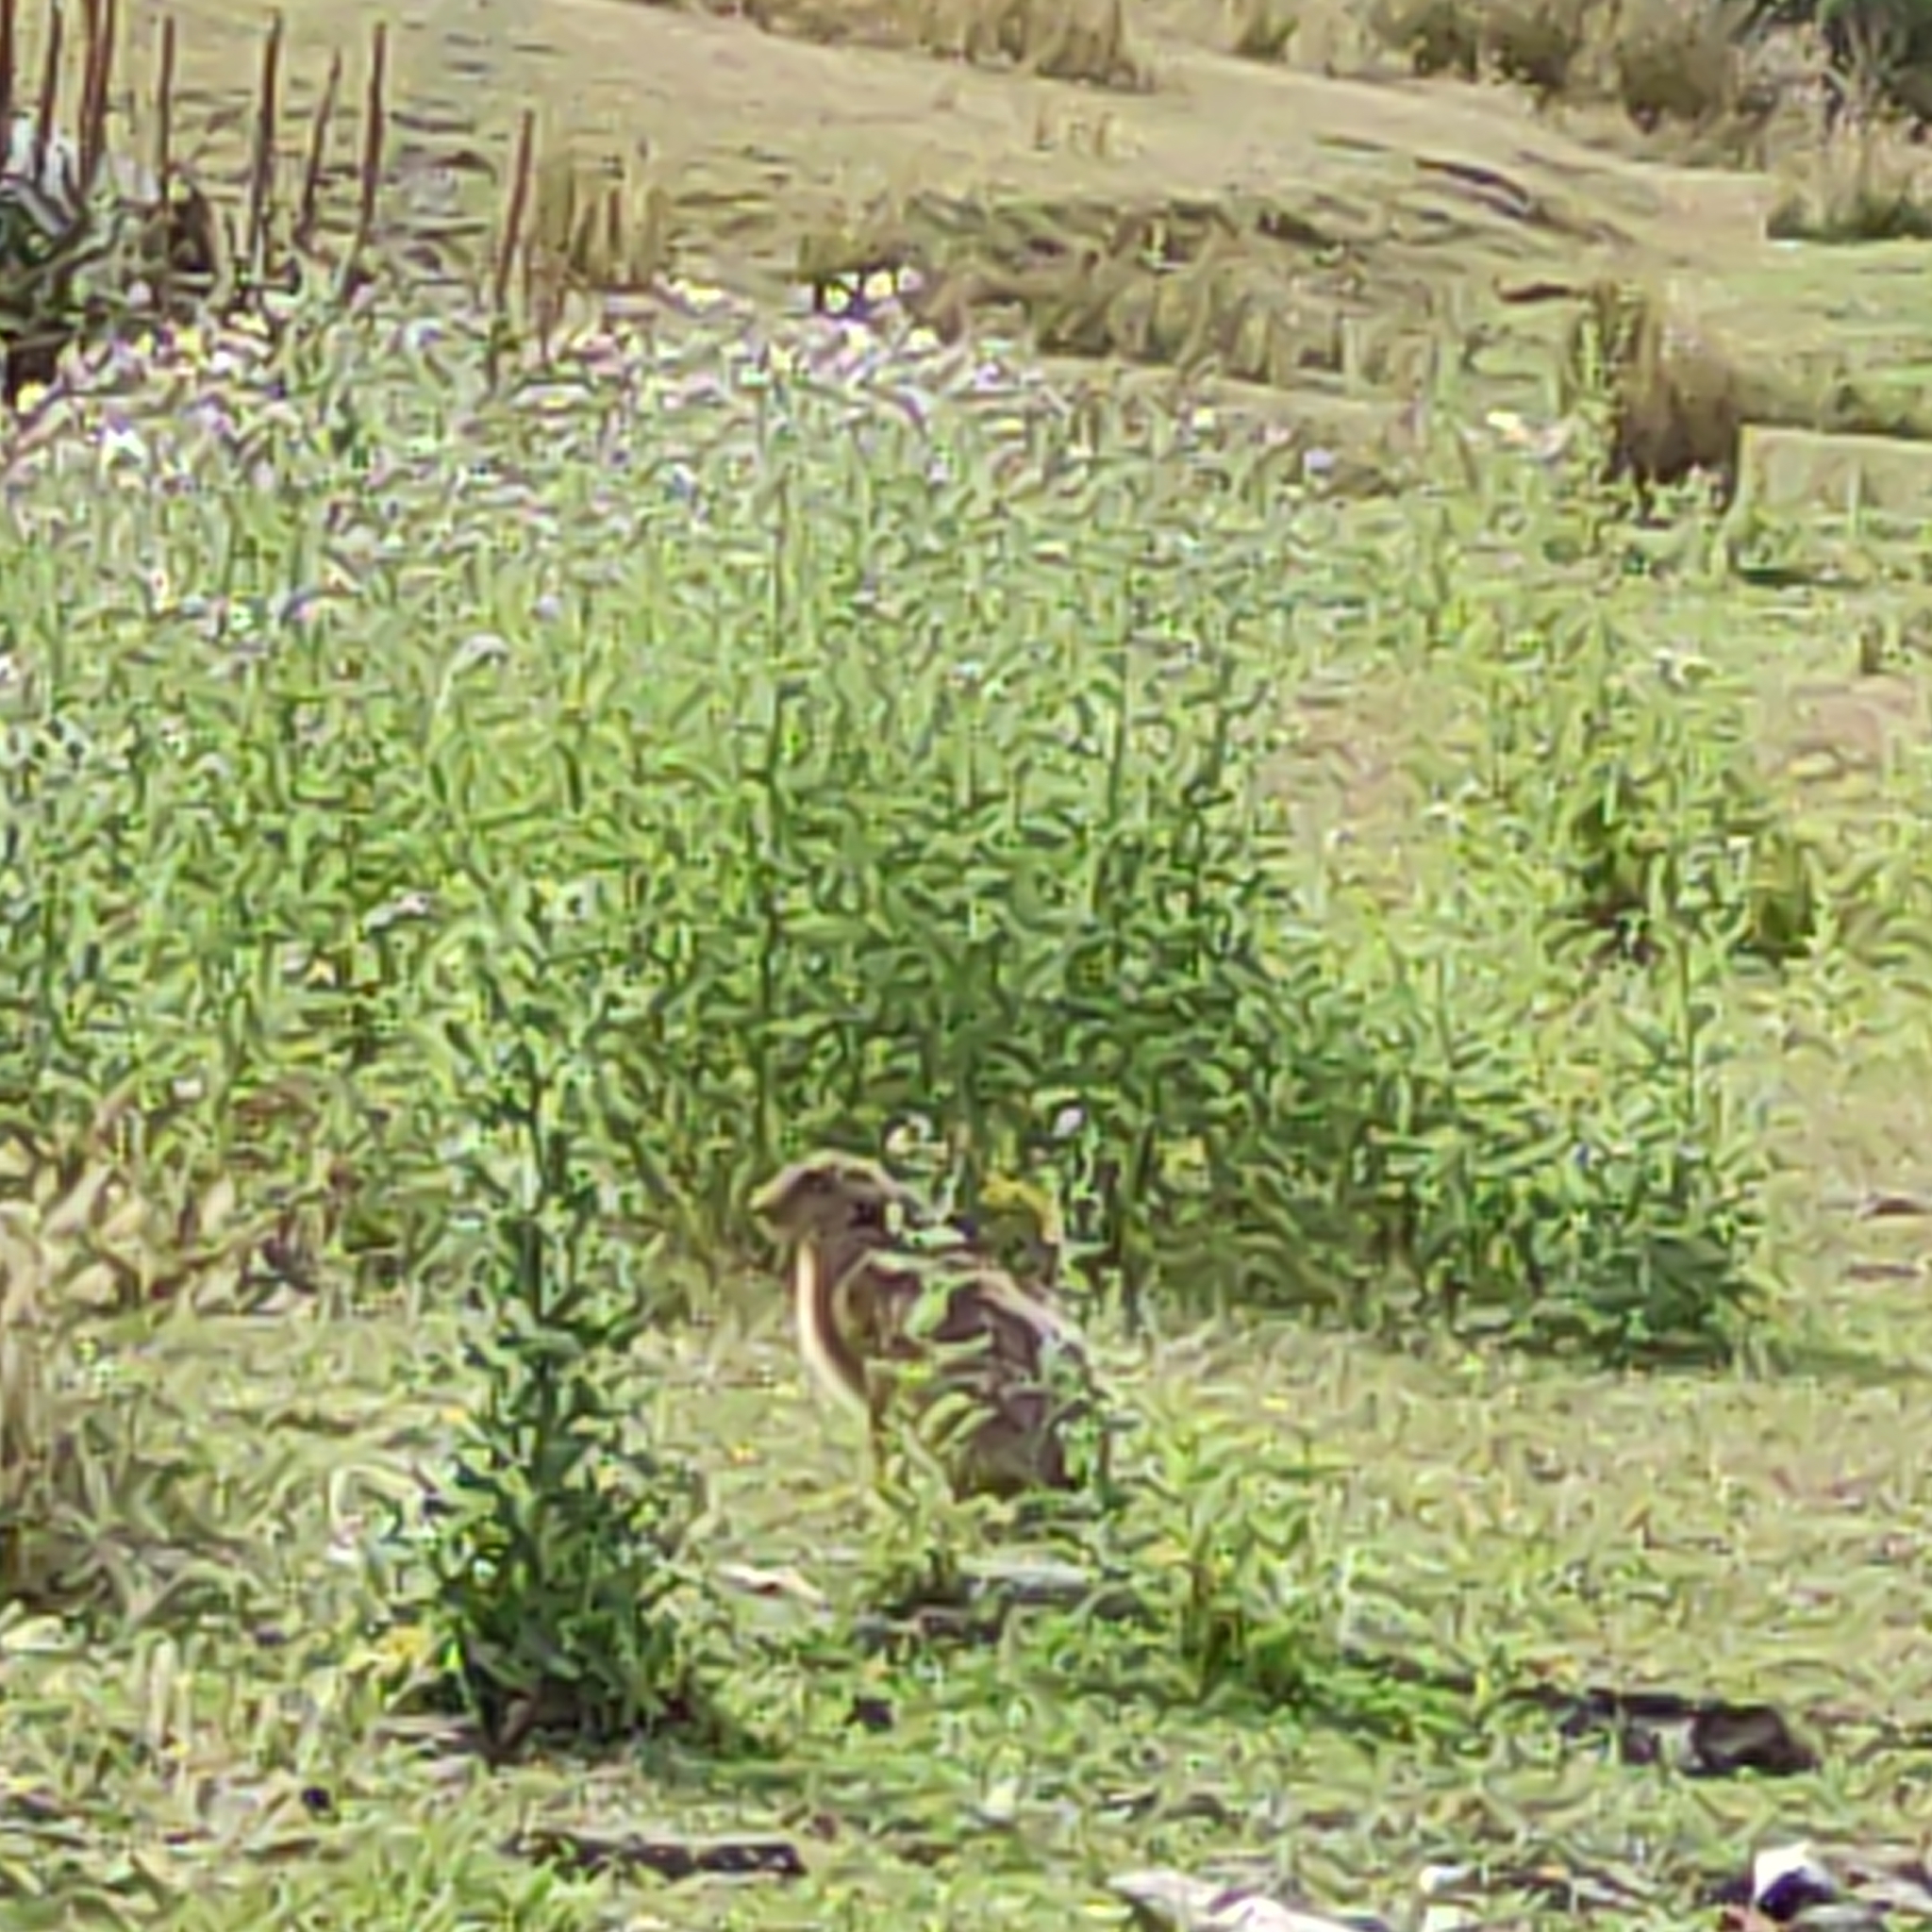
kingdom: Animalia
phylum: Chordata
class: Mammalia
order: Lagomorpha
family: Leporidae
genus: Lepus
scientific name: Lepus europaeus
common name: European hare
